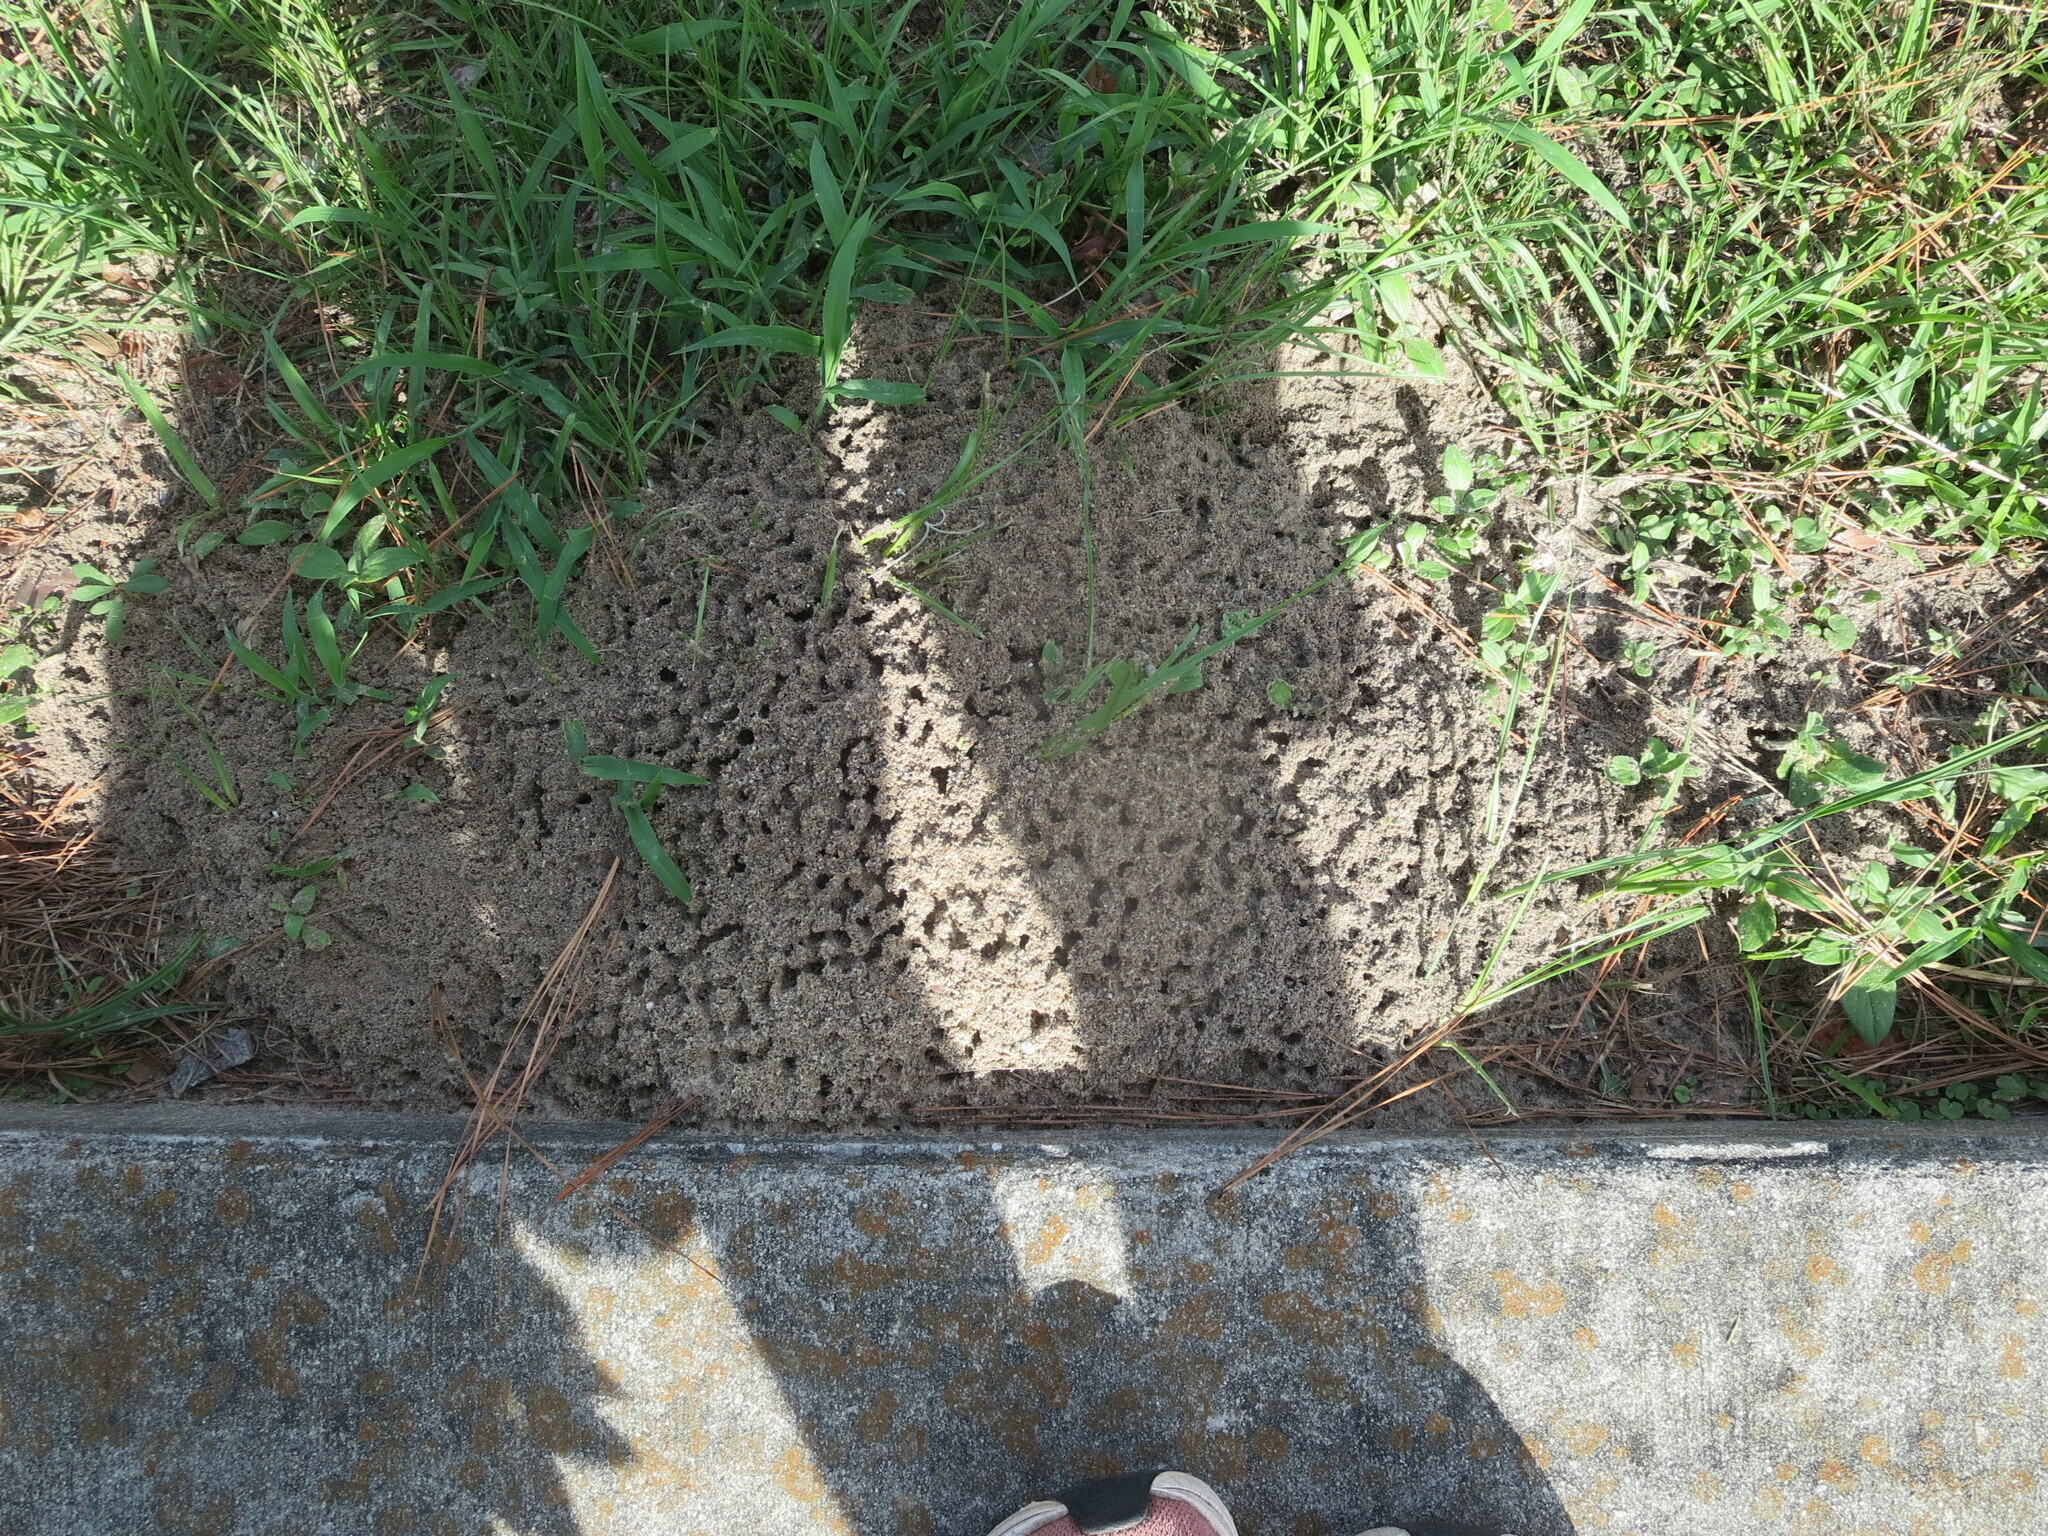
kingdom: Animalia
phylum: Arthropoda
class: Insecta
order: Hymenoptera
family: Formicidae
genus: Solenopsis
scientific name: Solenopsis invicta
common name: Red imported fire ant
